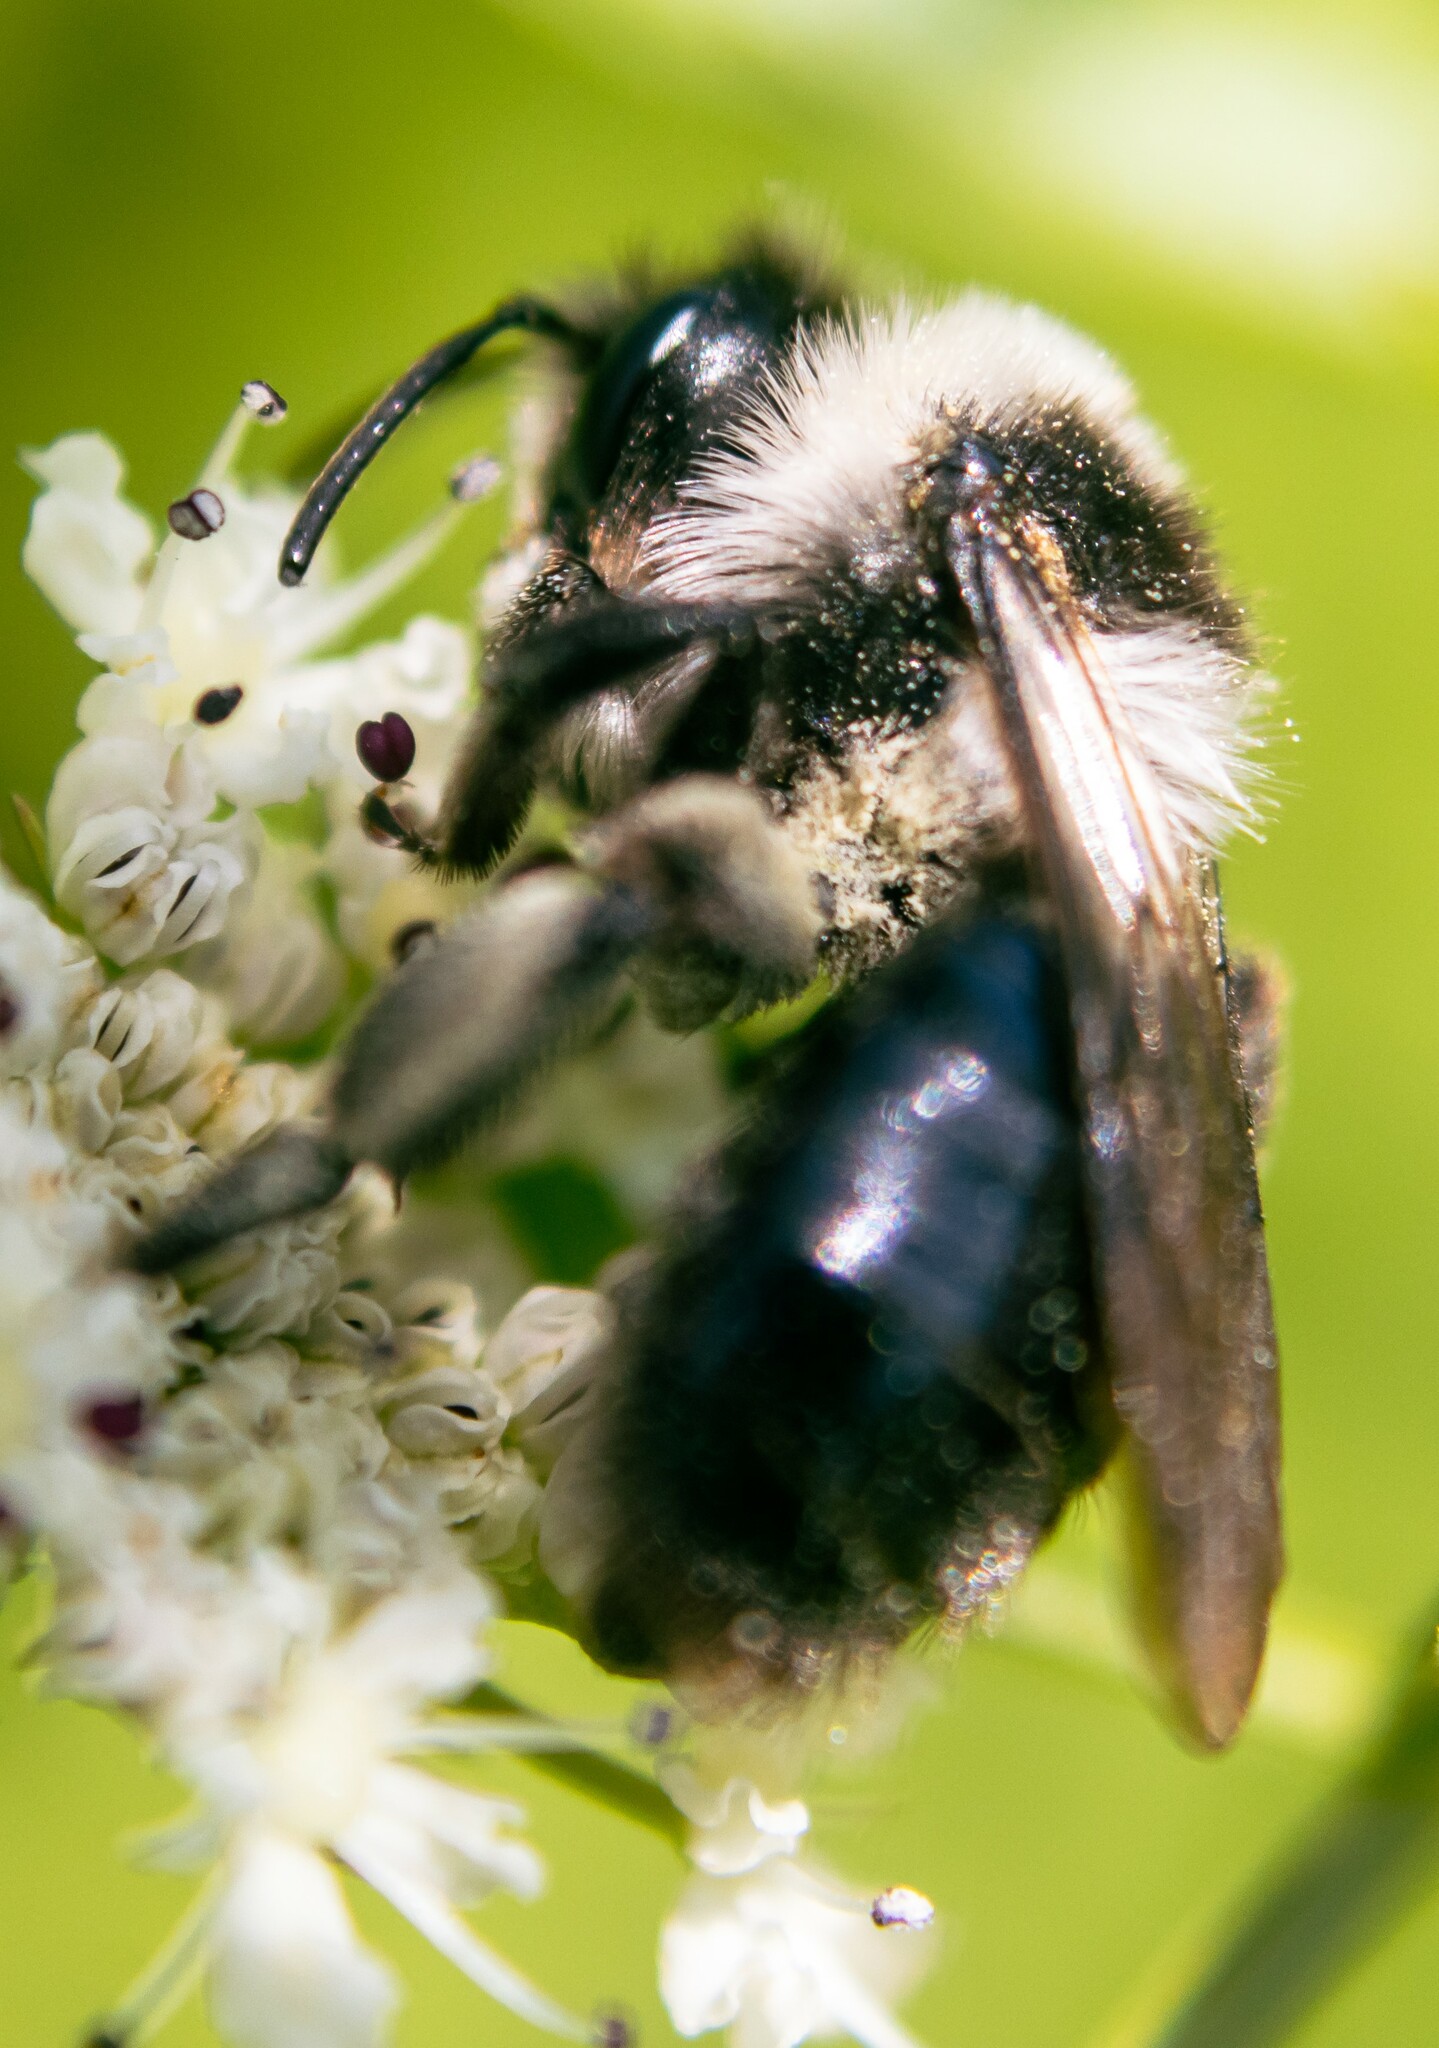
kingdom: Animalia
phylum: Arthropoda
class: Insecta
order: Hymenoptera
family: Andrenidae
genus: Andrena
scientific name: Andrena cineraria
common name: Ashy mining bee
